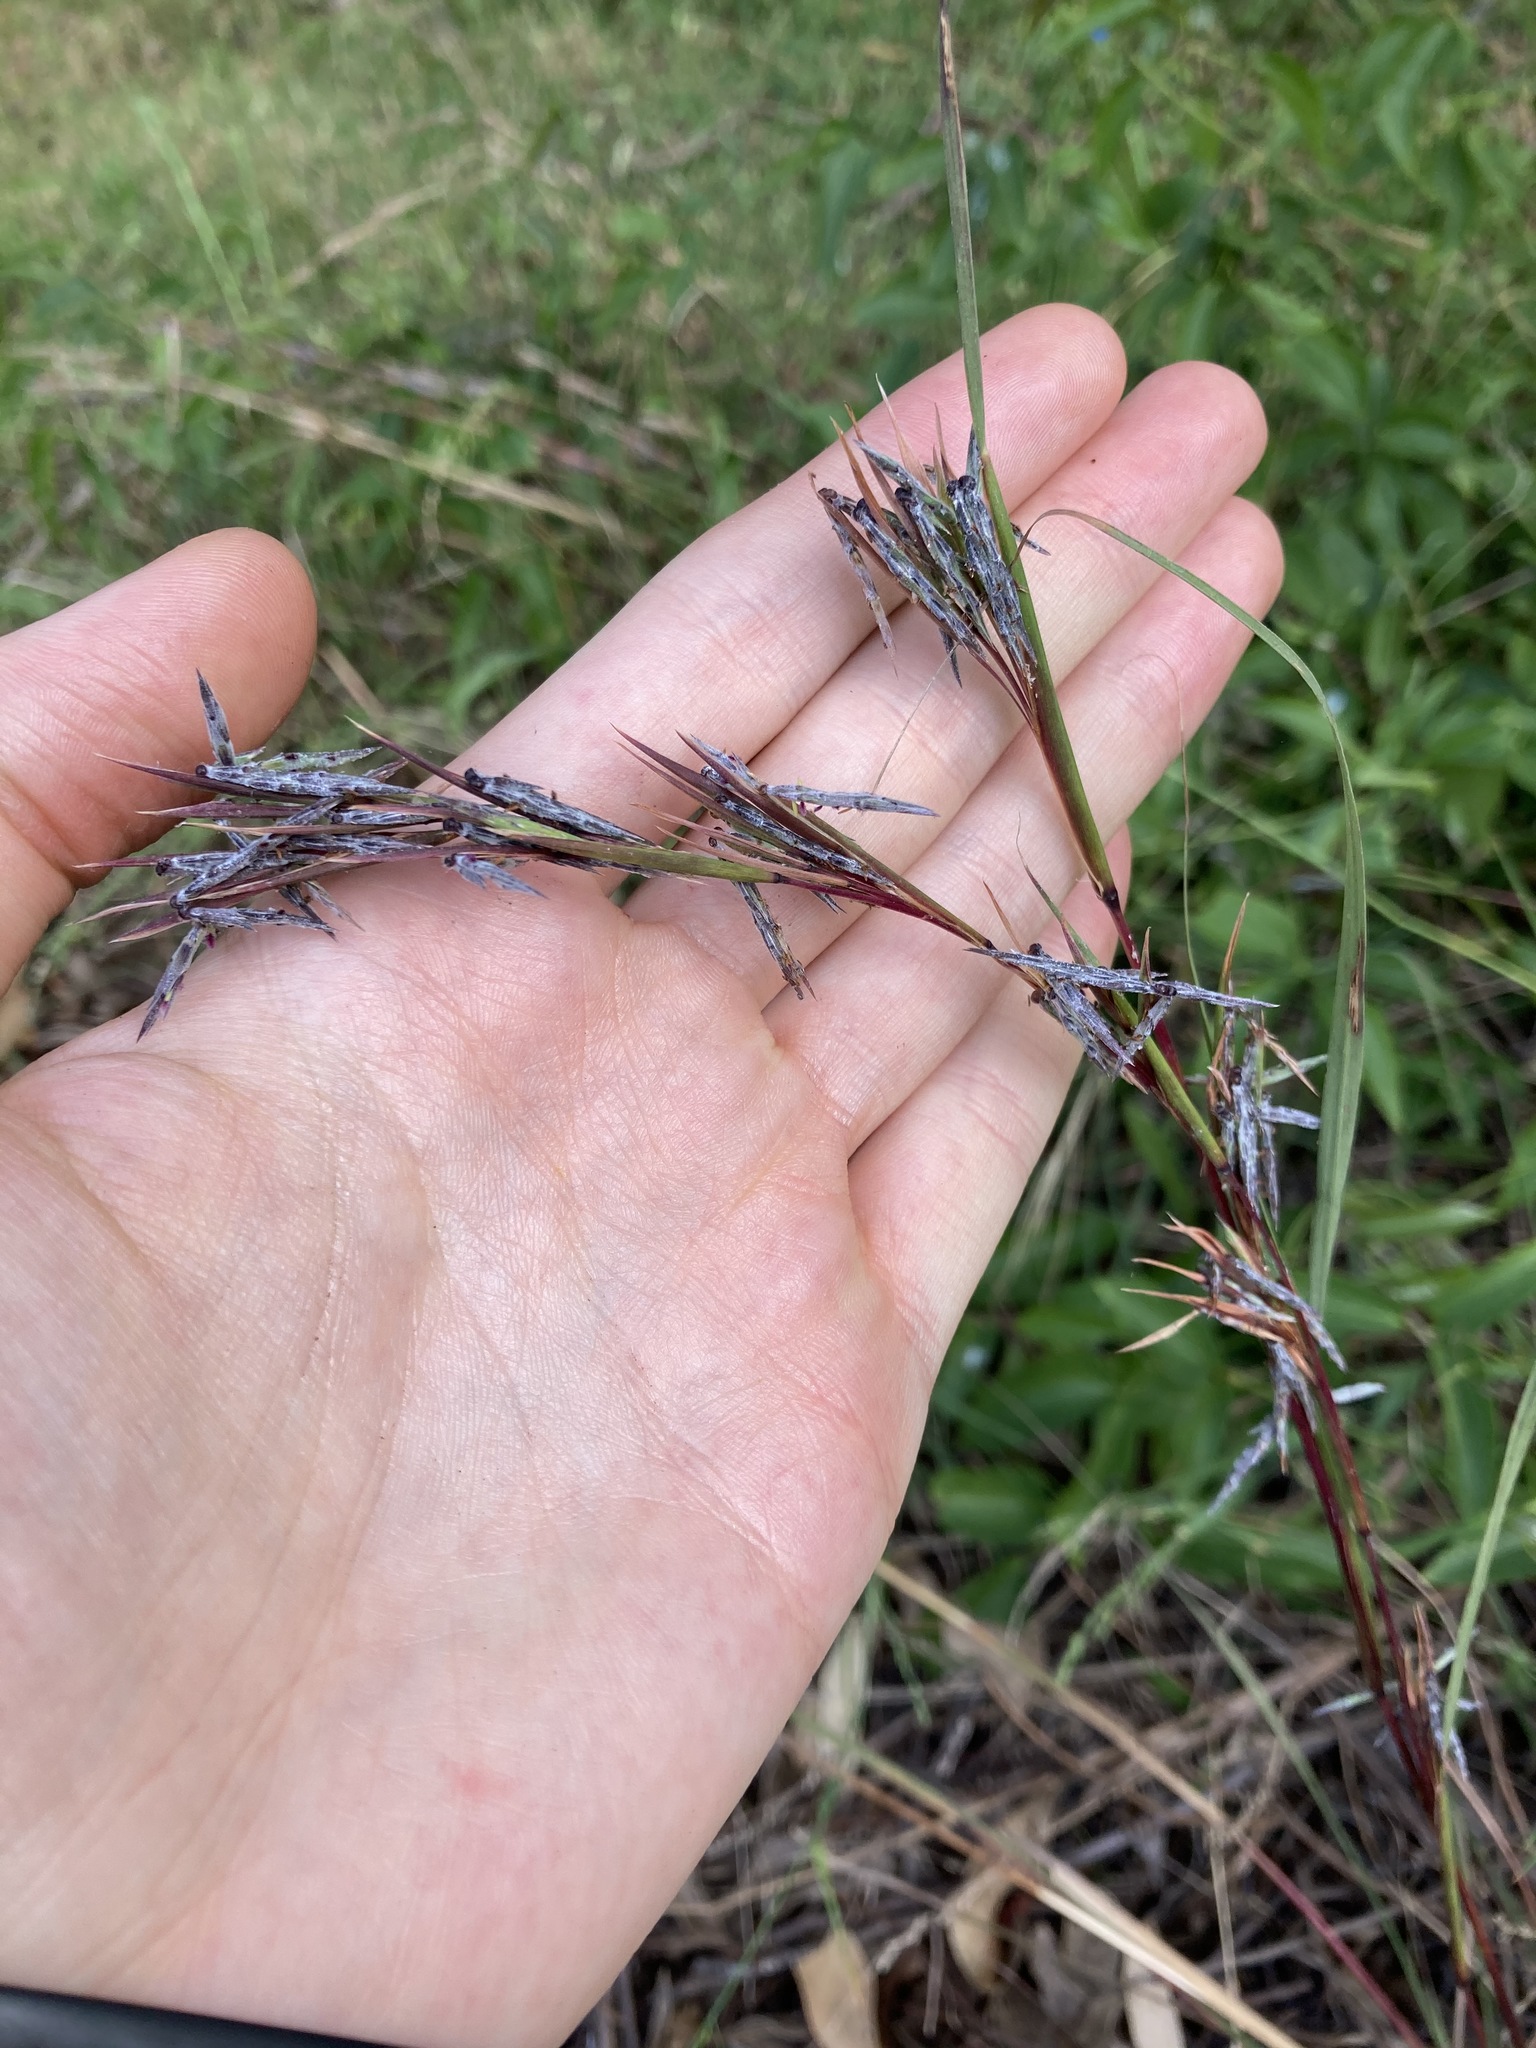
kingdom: Plantae
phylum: Tracheophyta
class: Liliopsida
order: Poales
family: Poaceae
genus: Cymbopogon
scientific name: Cymbopogon refractus
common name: Barbwire grass
